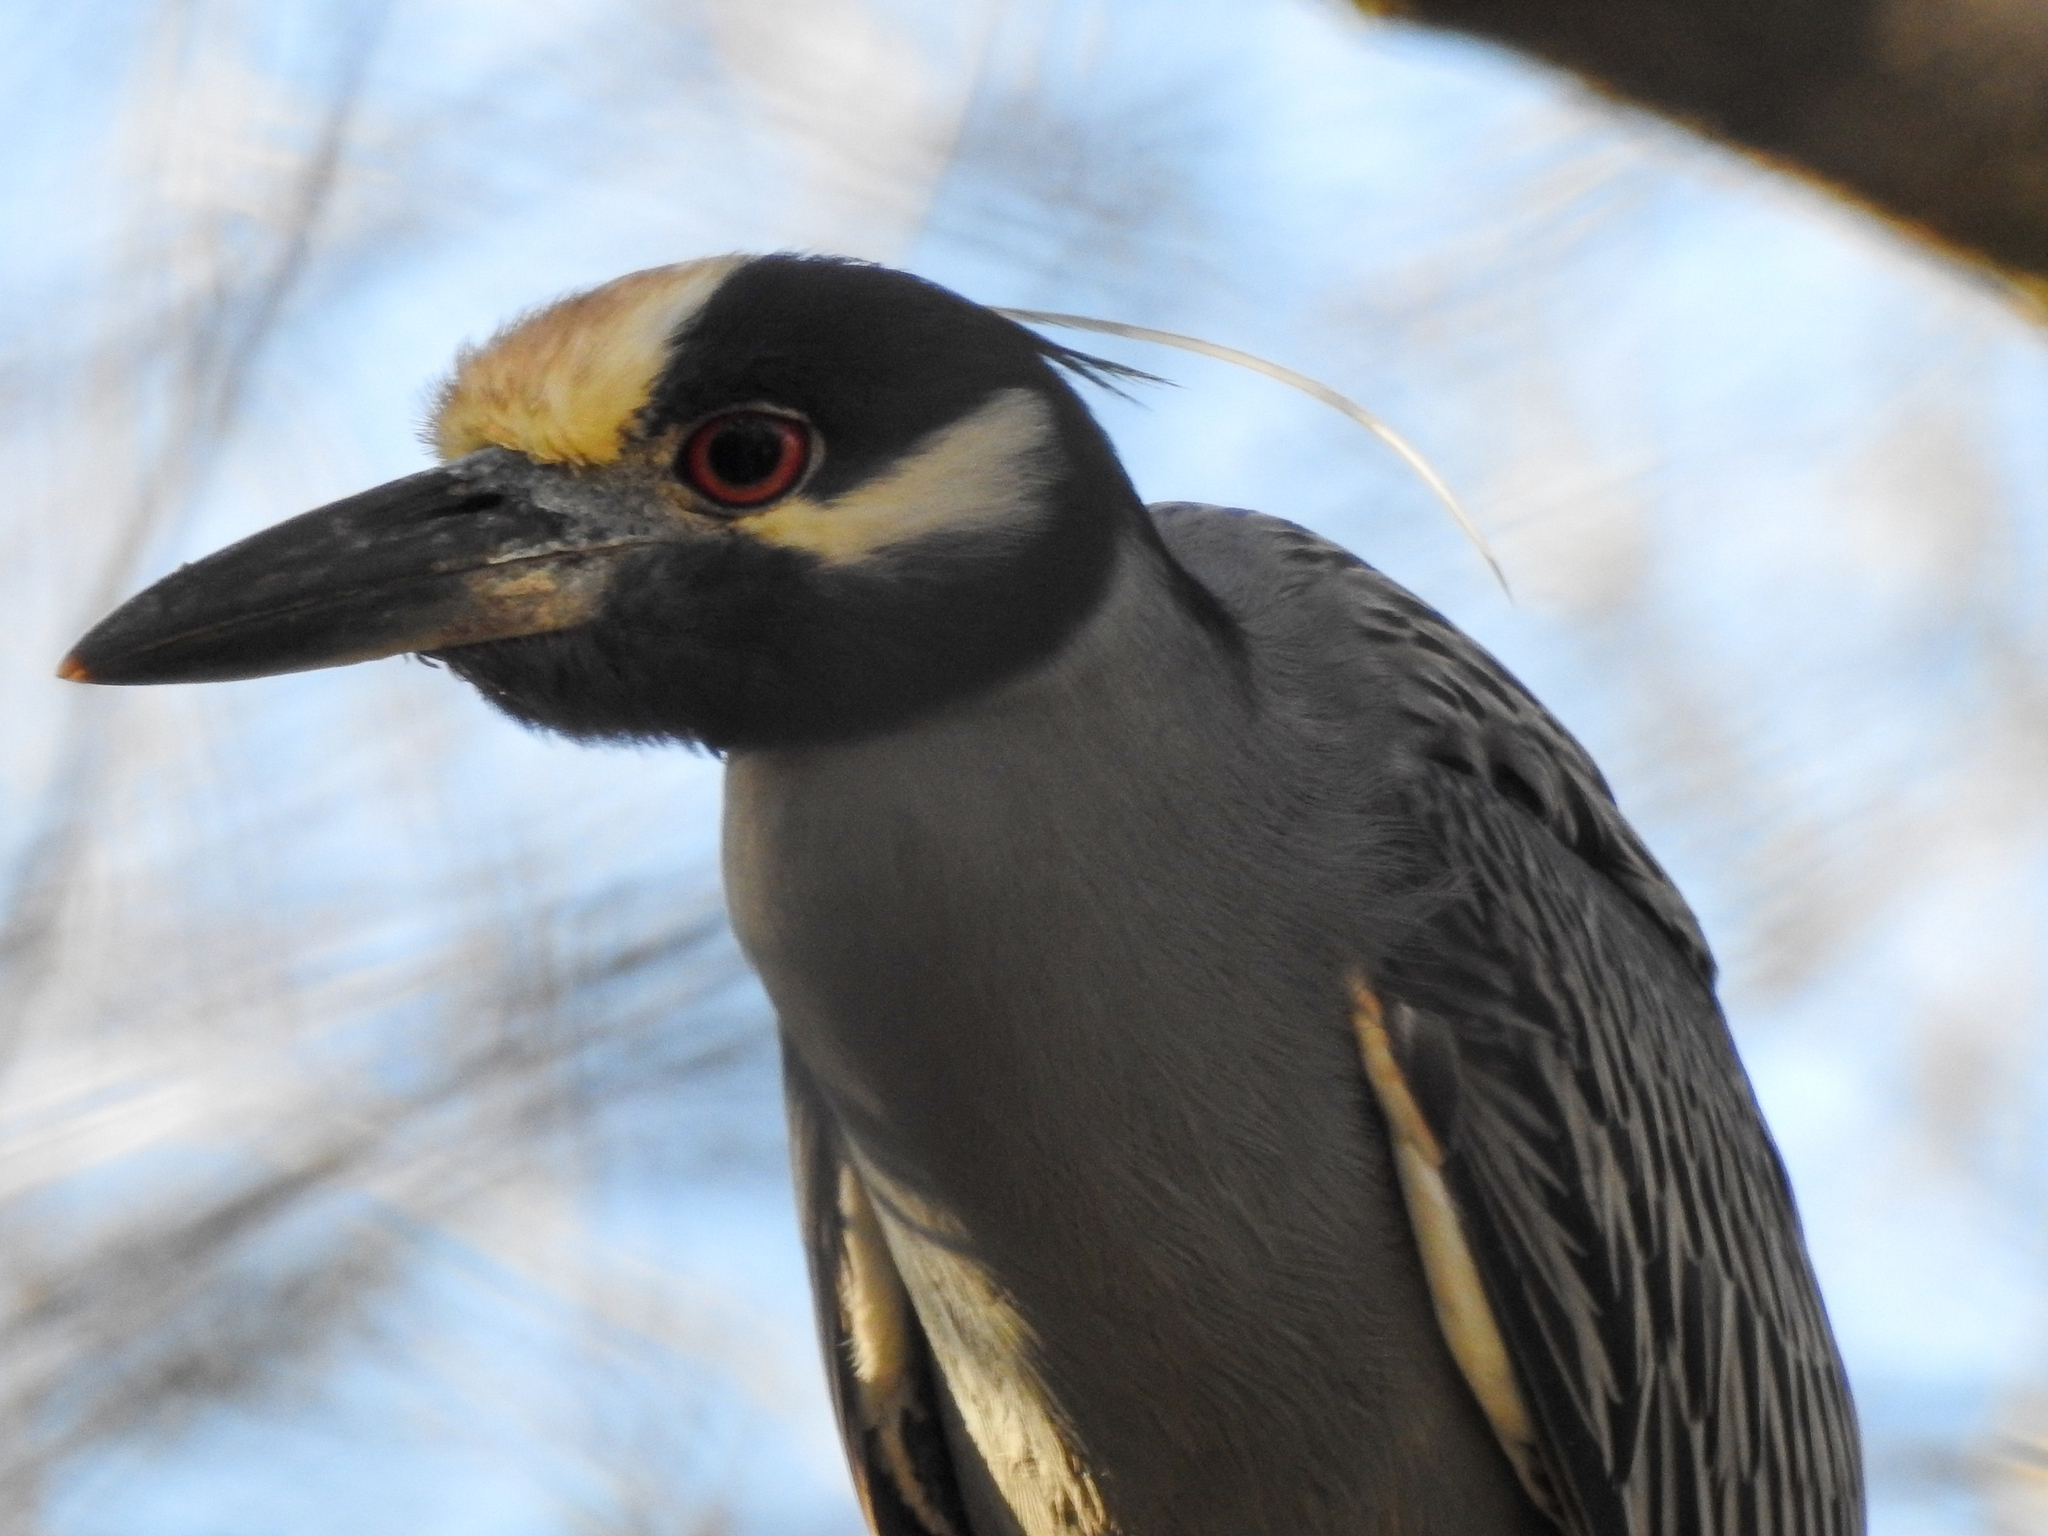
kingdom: Animalia
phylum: Chordata
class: Aves
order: Pelecaniformes
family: Ardeidae
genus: Nyctanassa
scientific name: Nyctanassa violacea
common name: Yellow-crowned night heron
